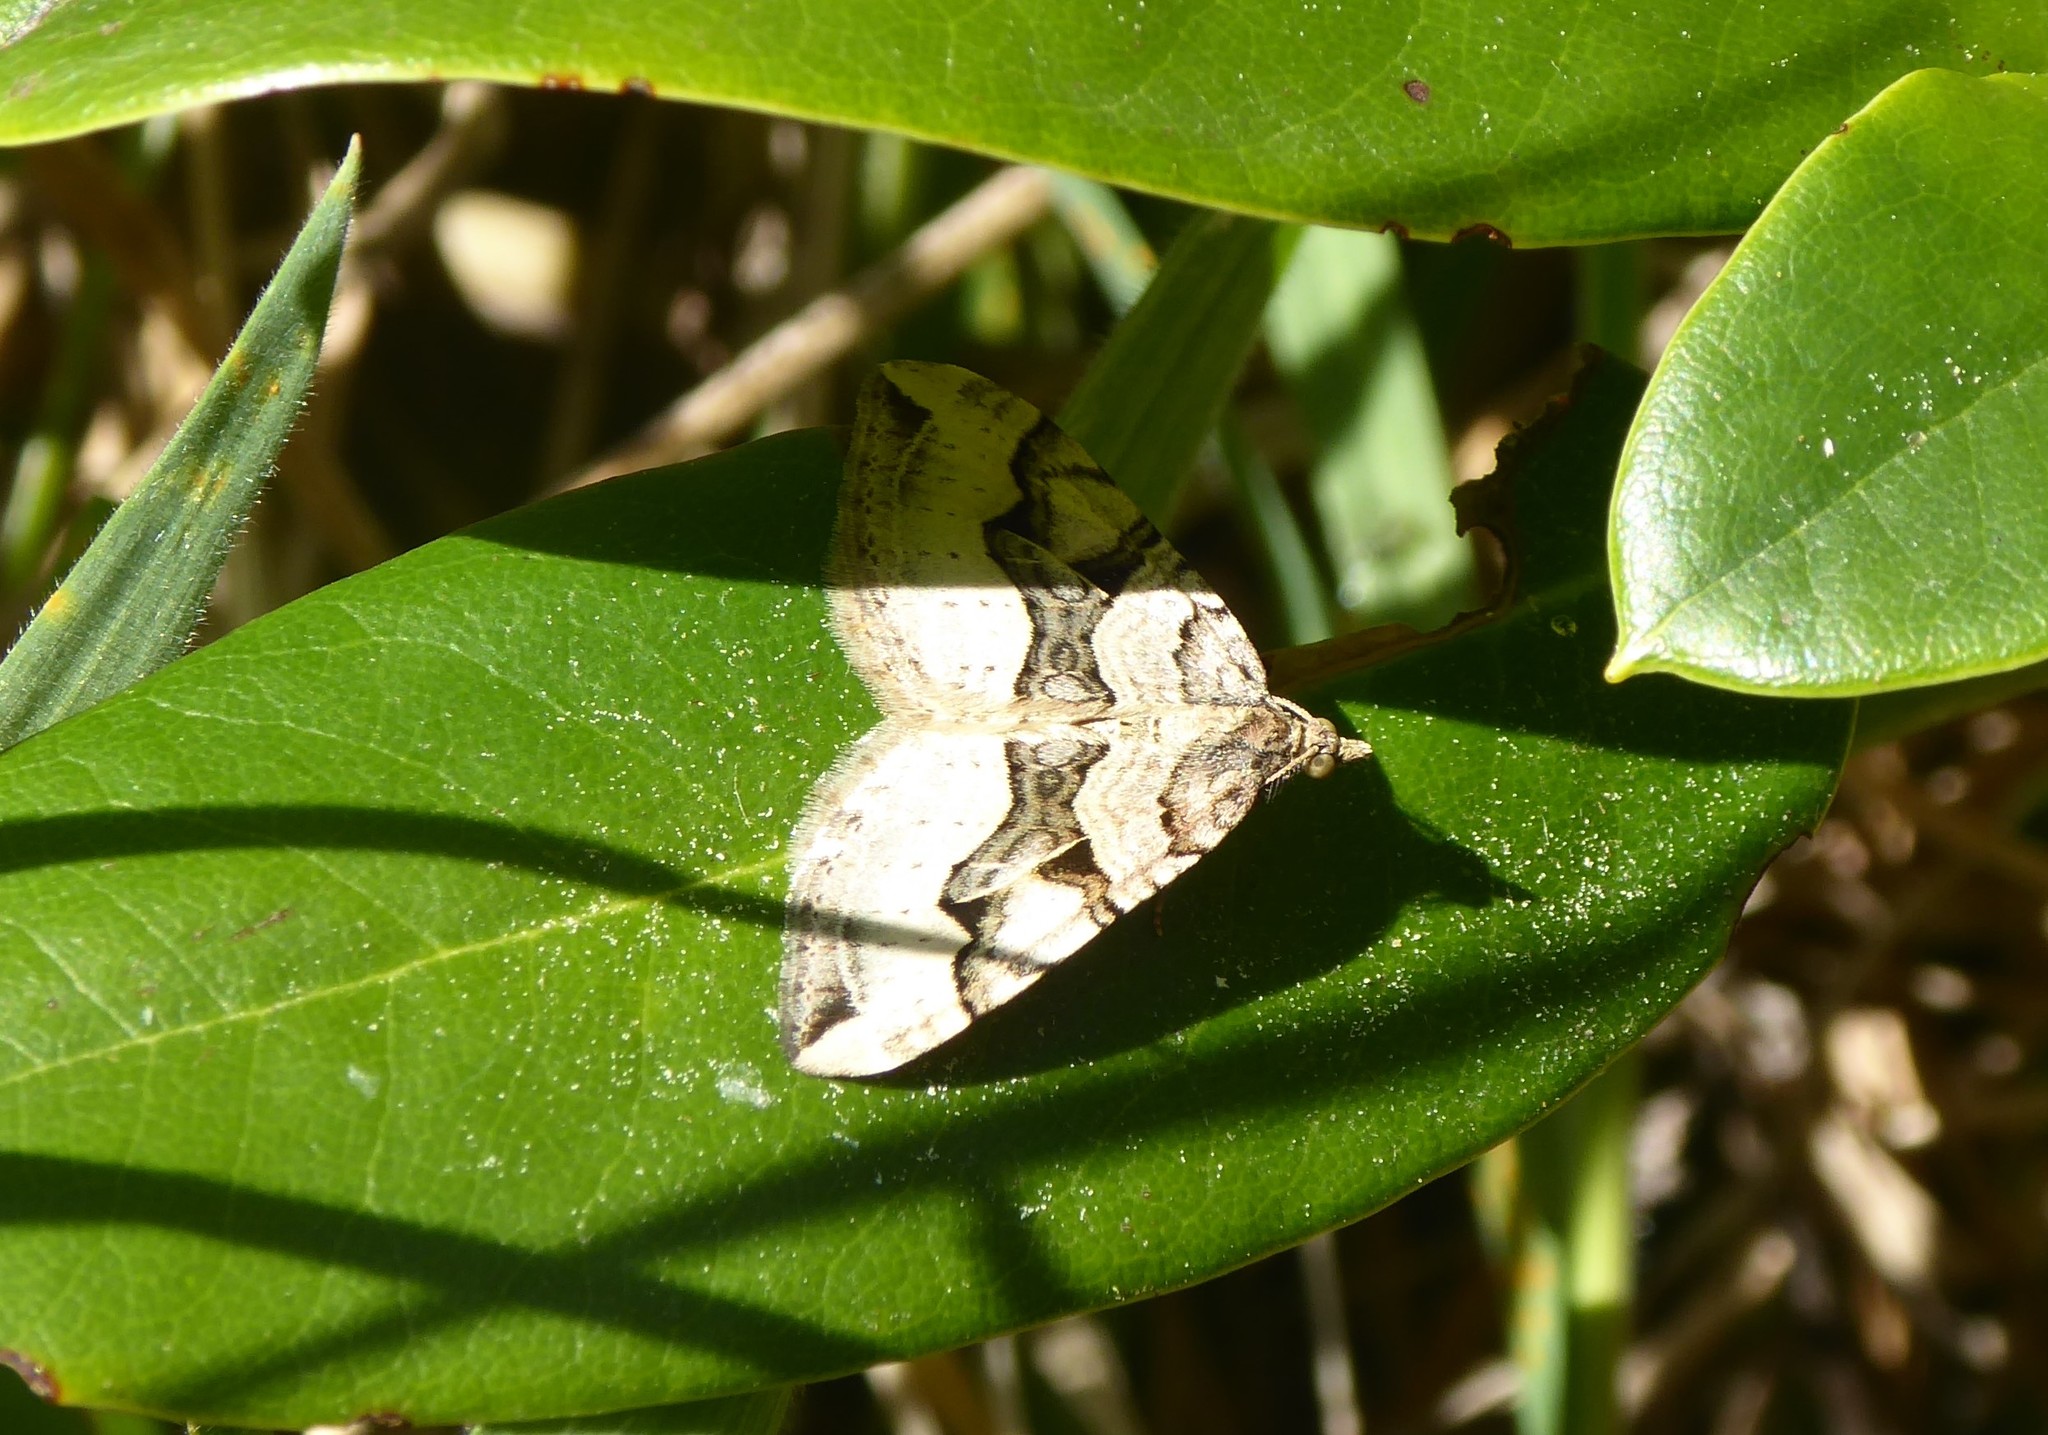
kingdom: Animalia
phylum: Arthropoda
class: Insecta
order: Lepidoptera
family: Geometridae
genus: Xanthorhoe
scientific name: Xanthorhoe semifissata
